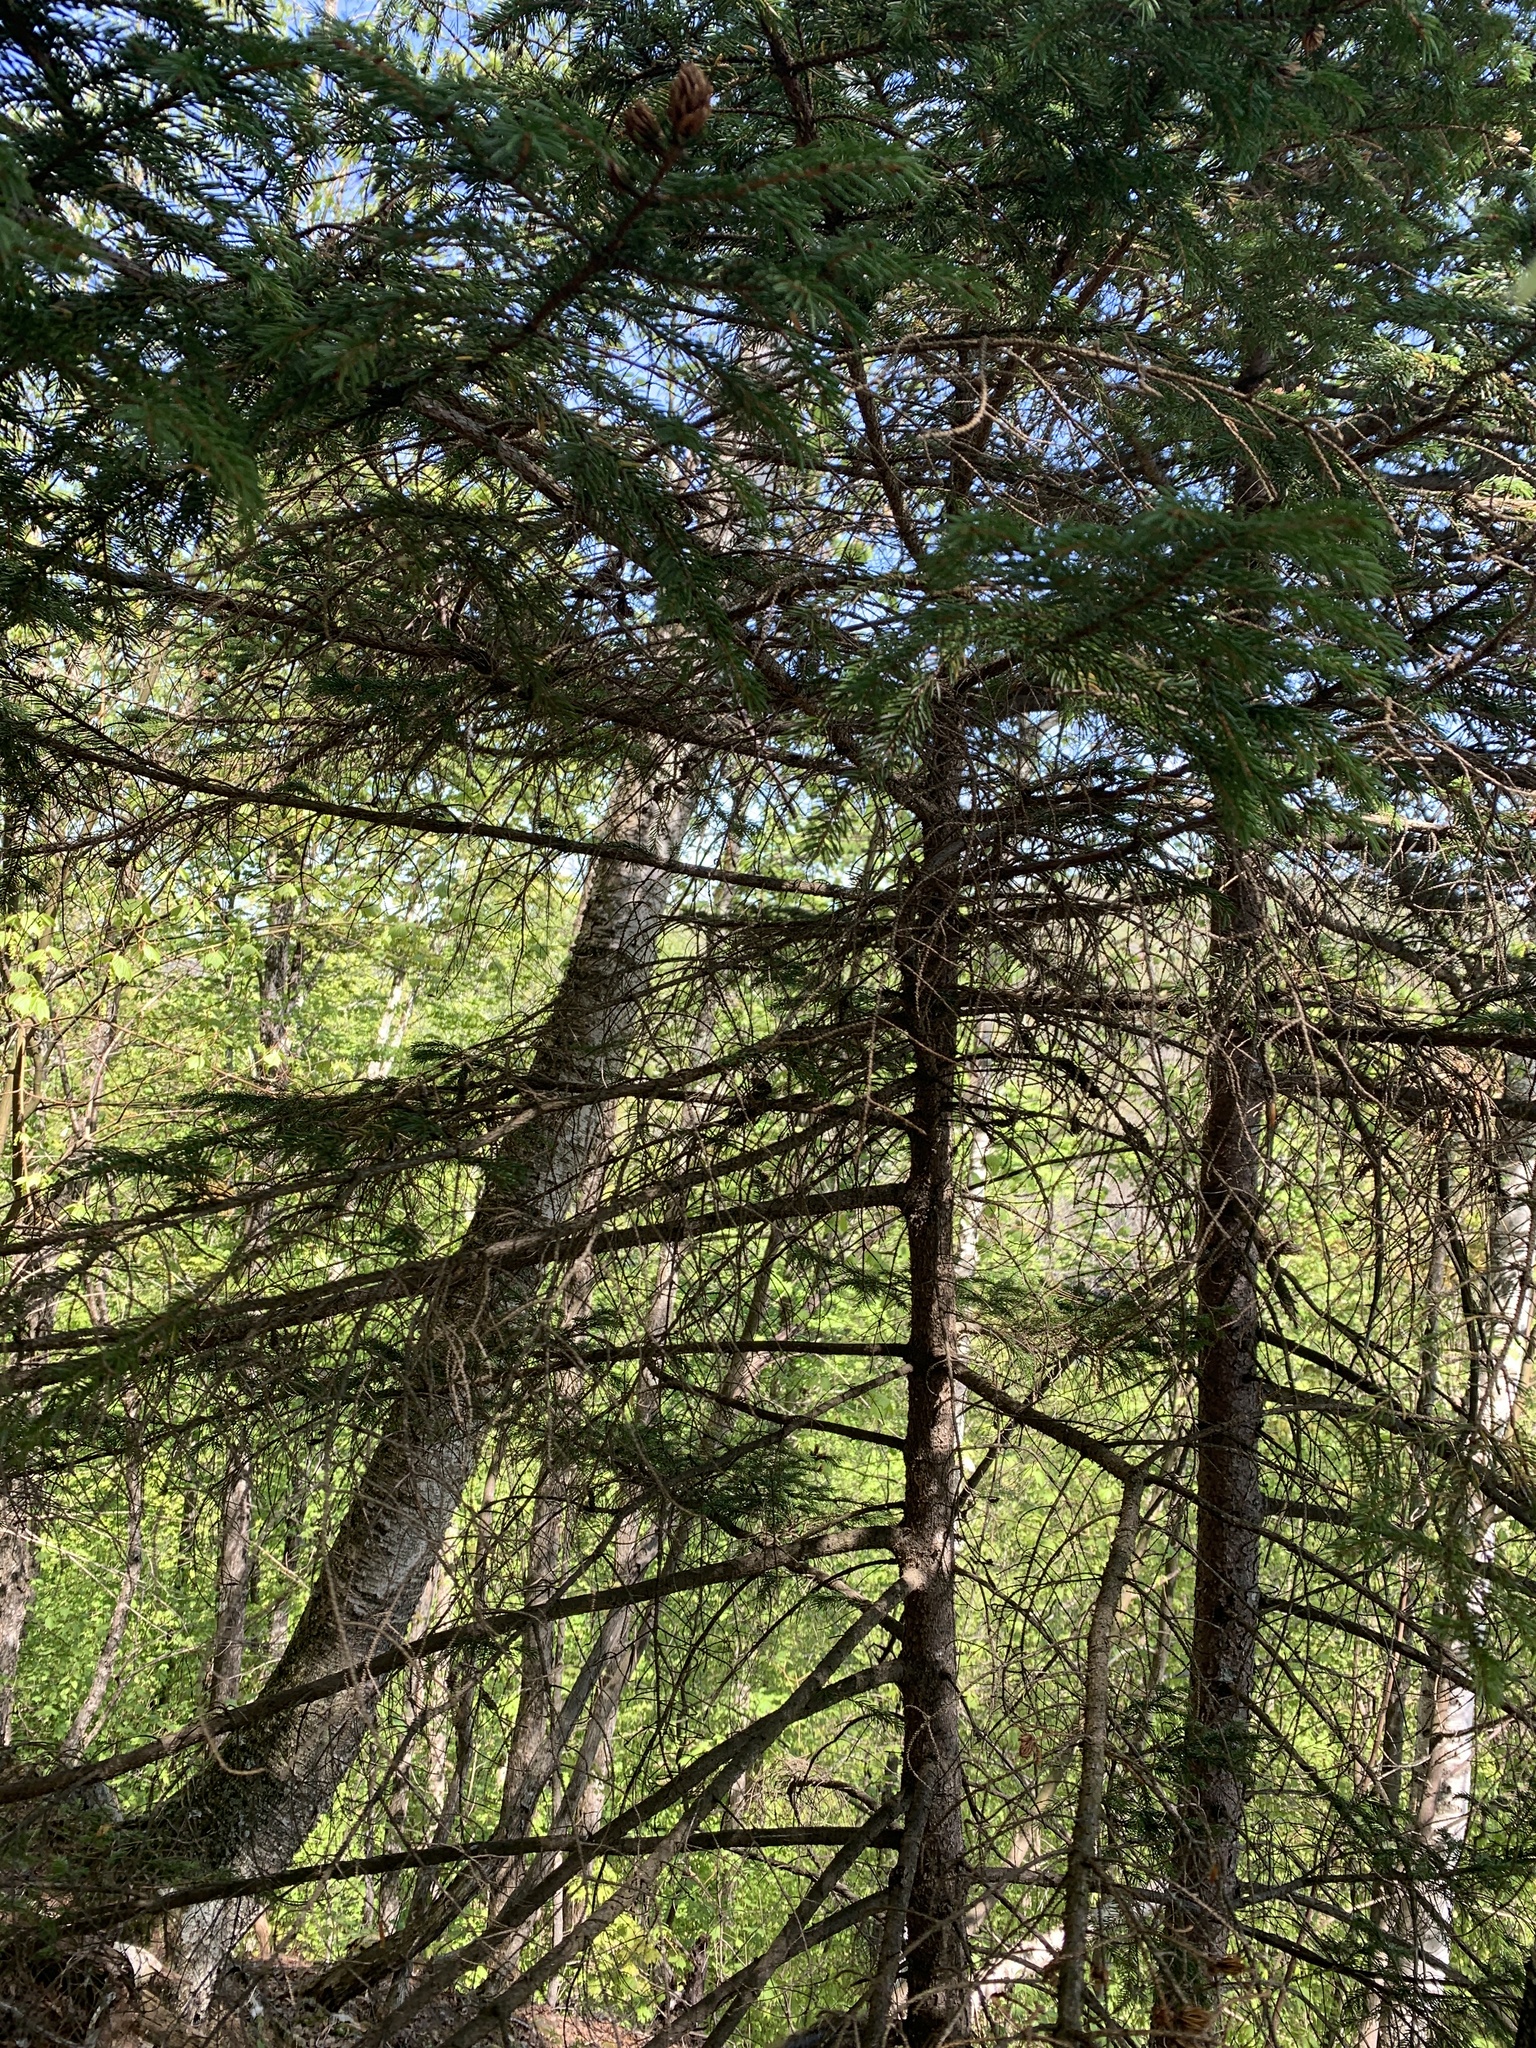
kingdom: Plantae
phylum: Tracheophyta
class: Pinopsida
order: Pinales
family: Pinaceae
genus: Picea
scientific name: Picea rubens
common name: Red spruce
